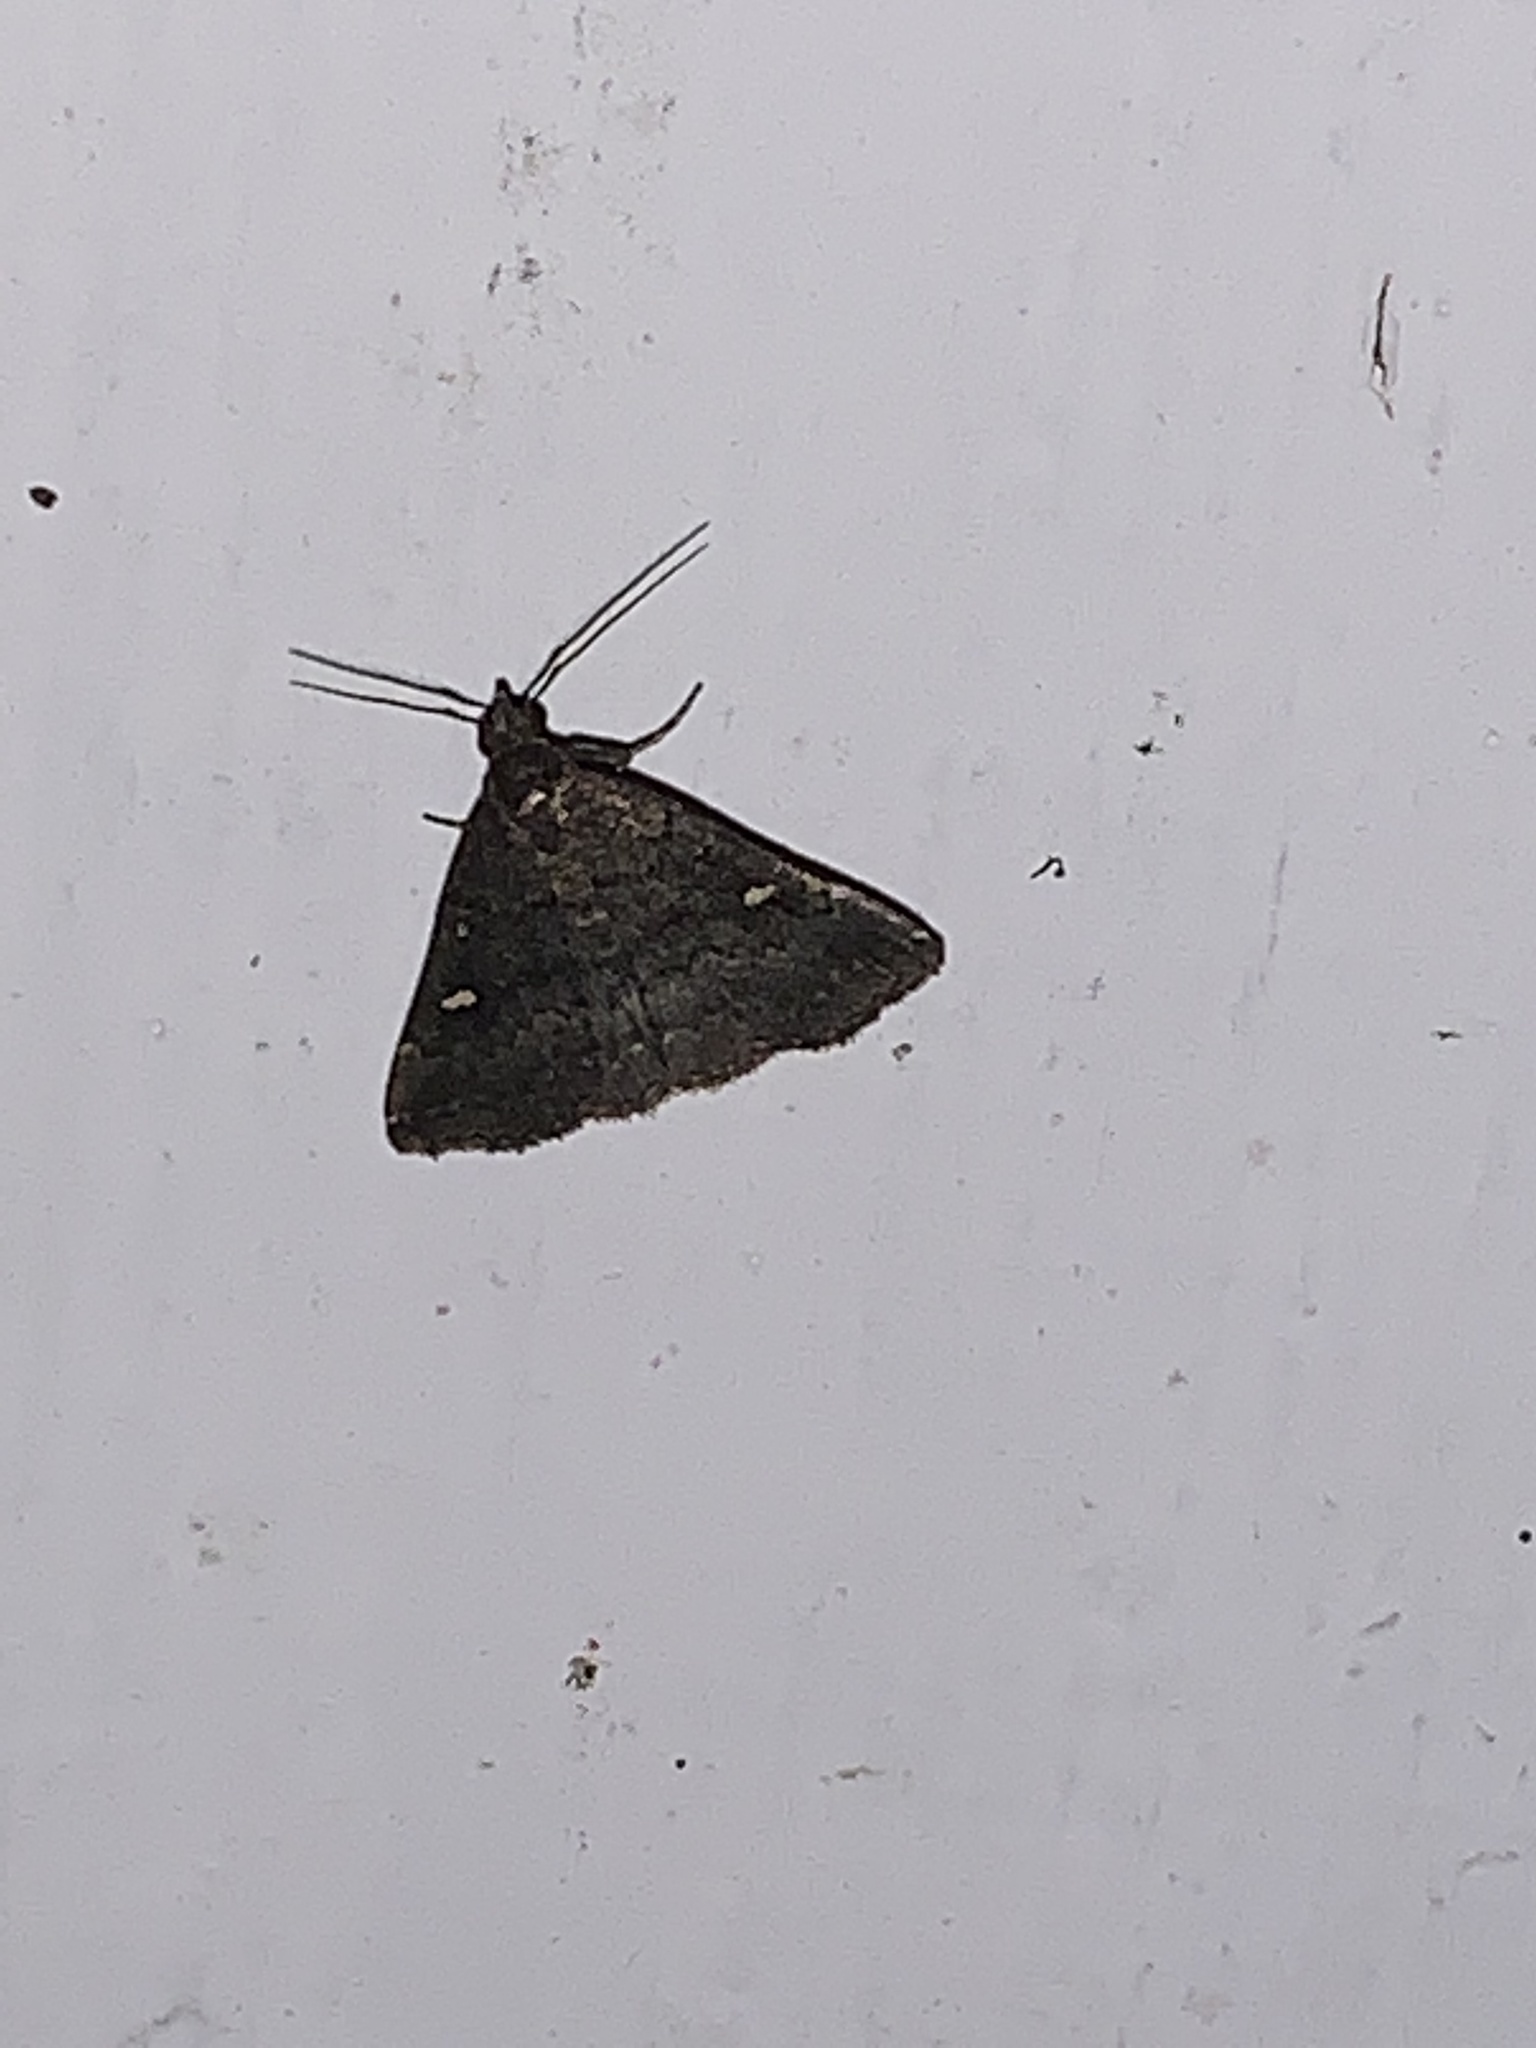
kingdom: Animalia
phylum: Arthropoda
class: Insecta
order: Lepidoptera
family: Erebidae
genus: Tetanolita
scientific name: Tetanolita mynesalis
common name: Smoky tetanolita moth
